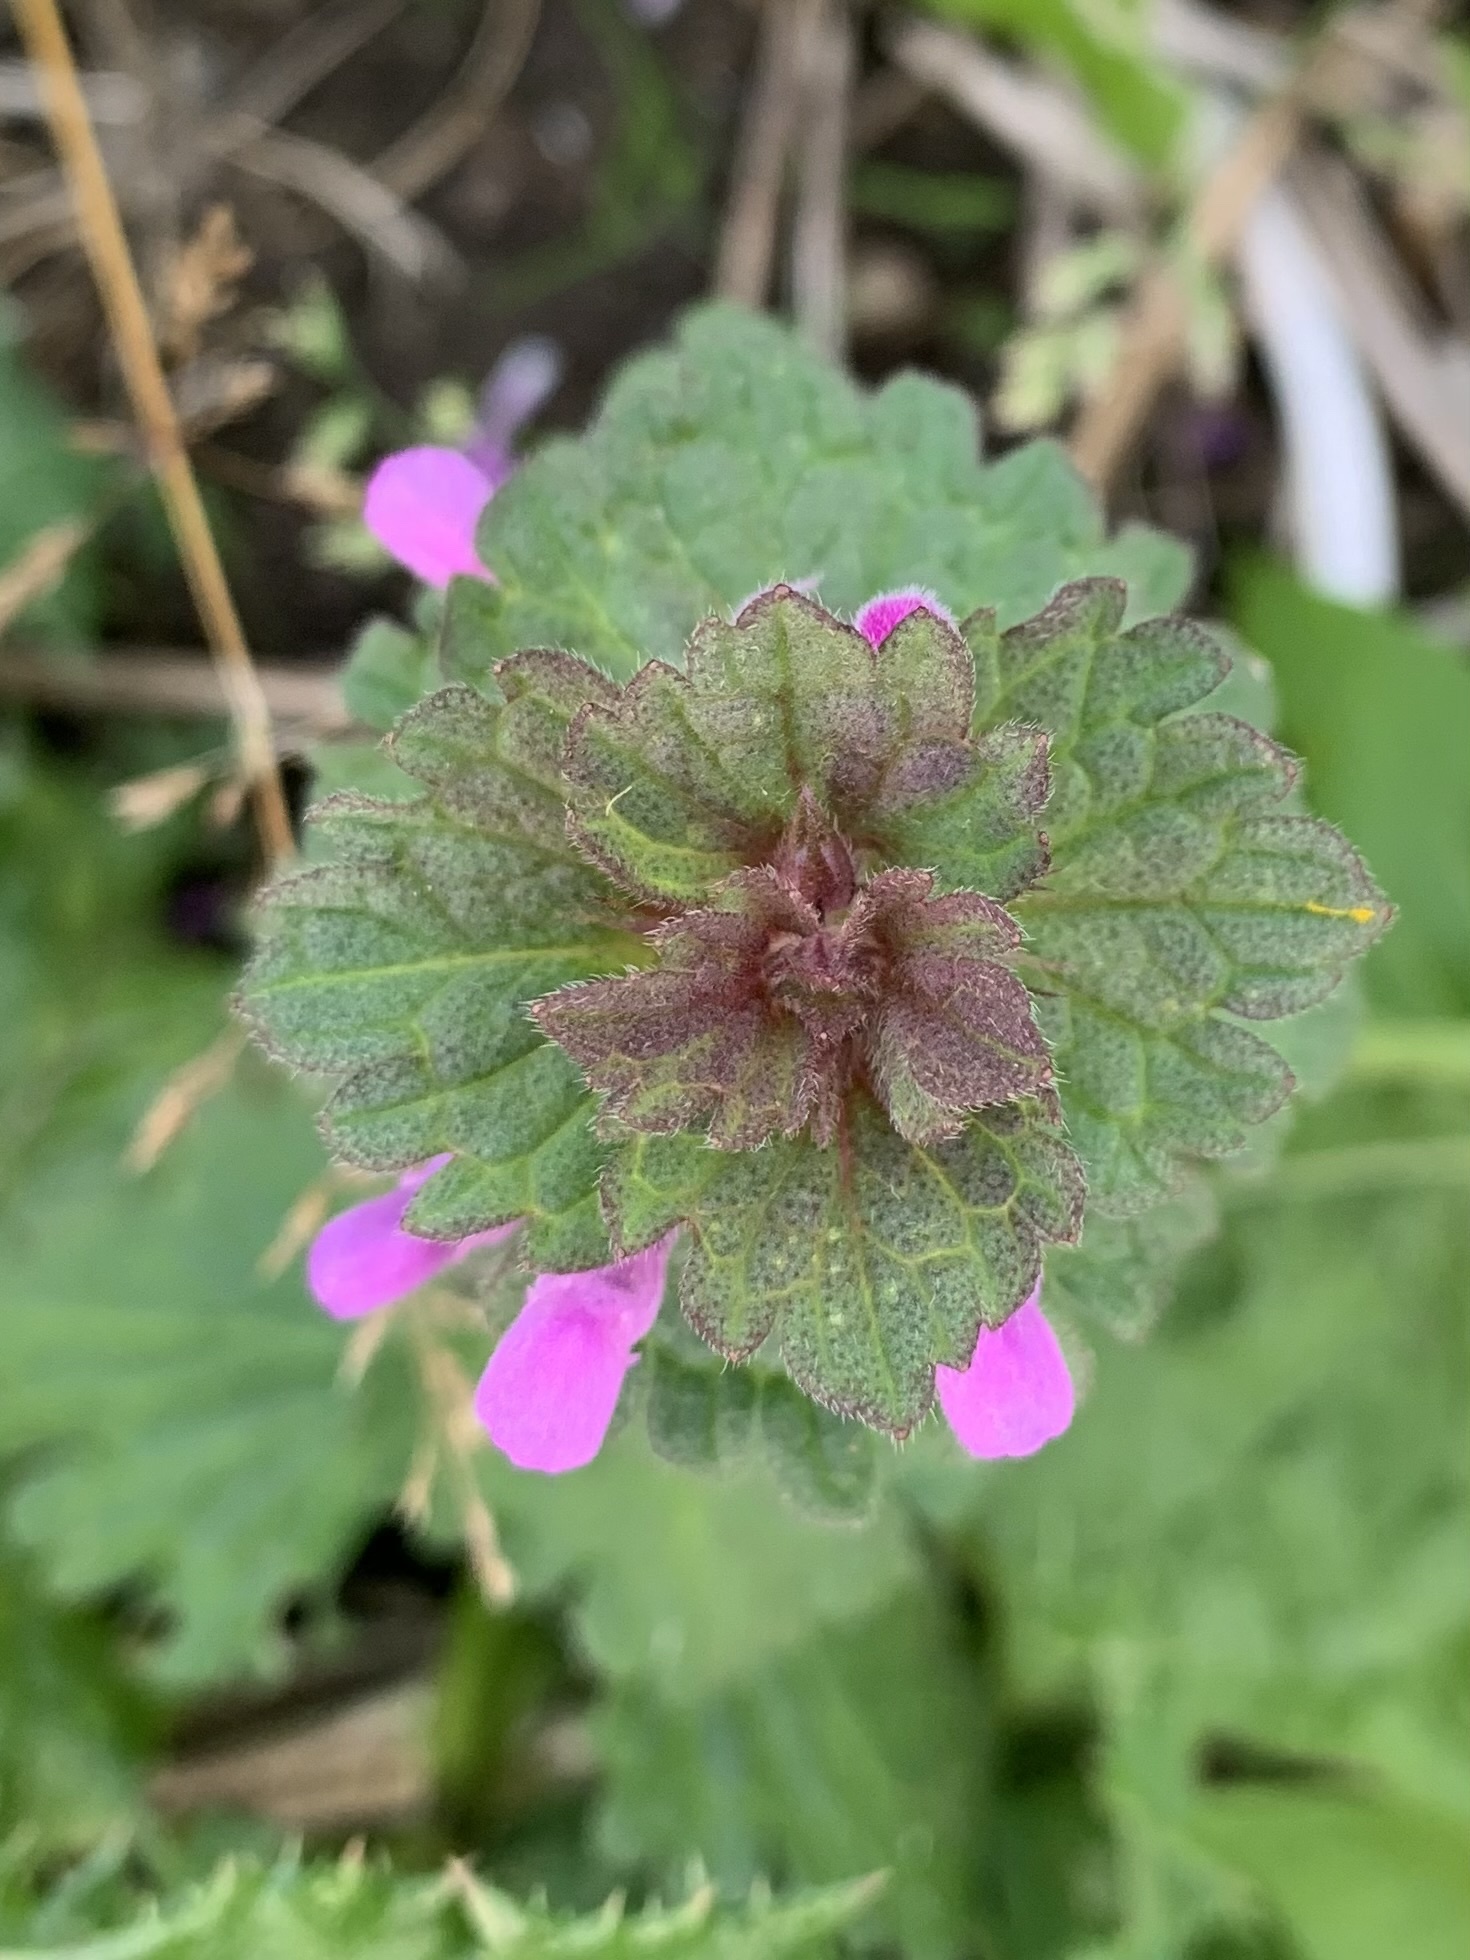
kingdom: Plantae
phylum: Tracheophyta
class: Magnoliopsida
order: Lamiales
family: Lamiaceae
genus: Lamium
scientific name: Lamium hybridum
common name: Cut-leaved dead-nettle
